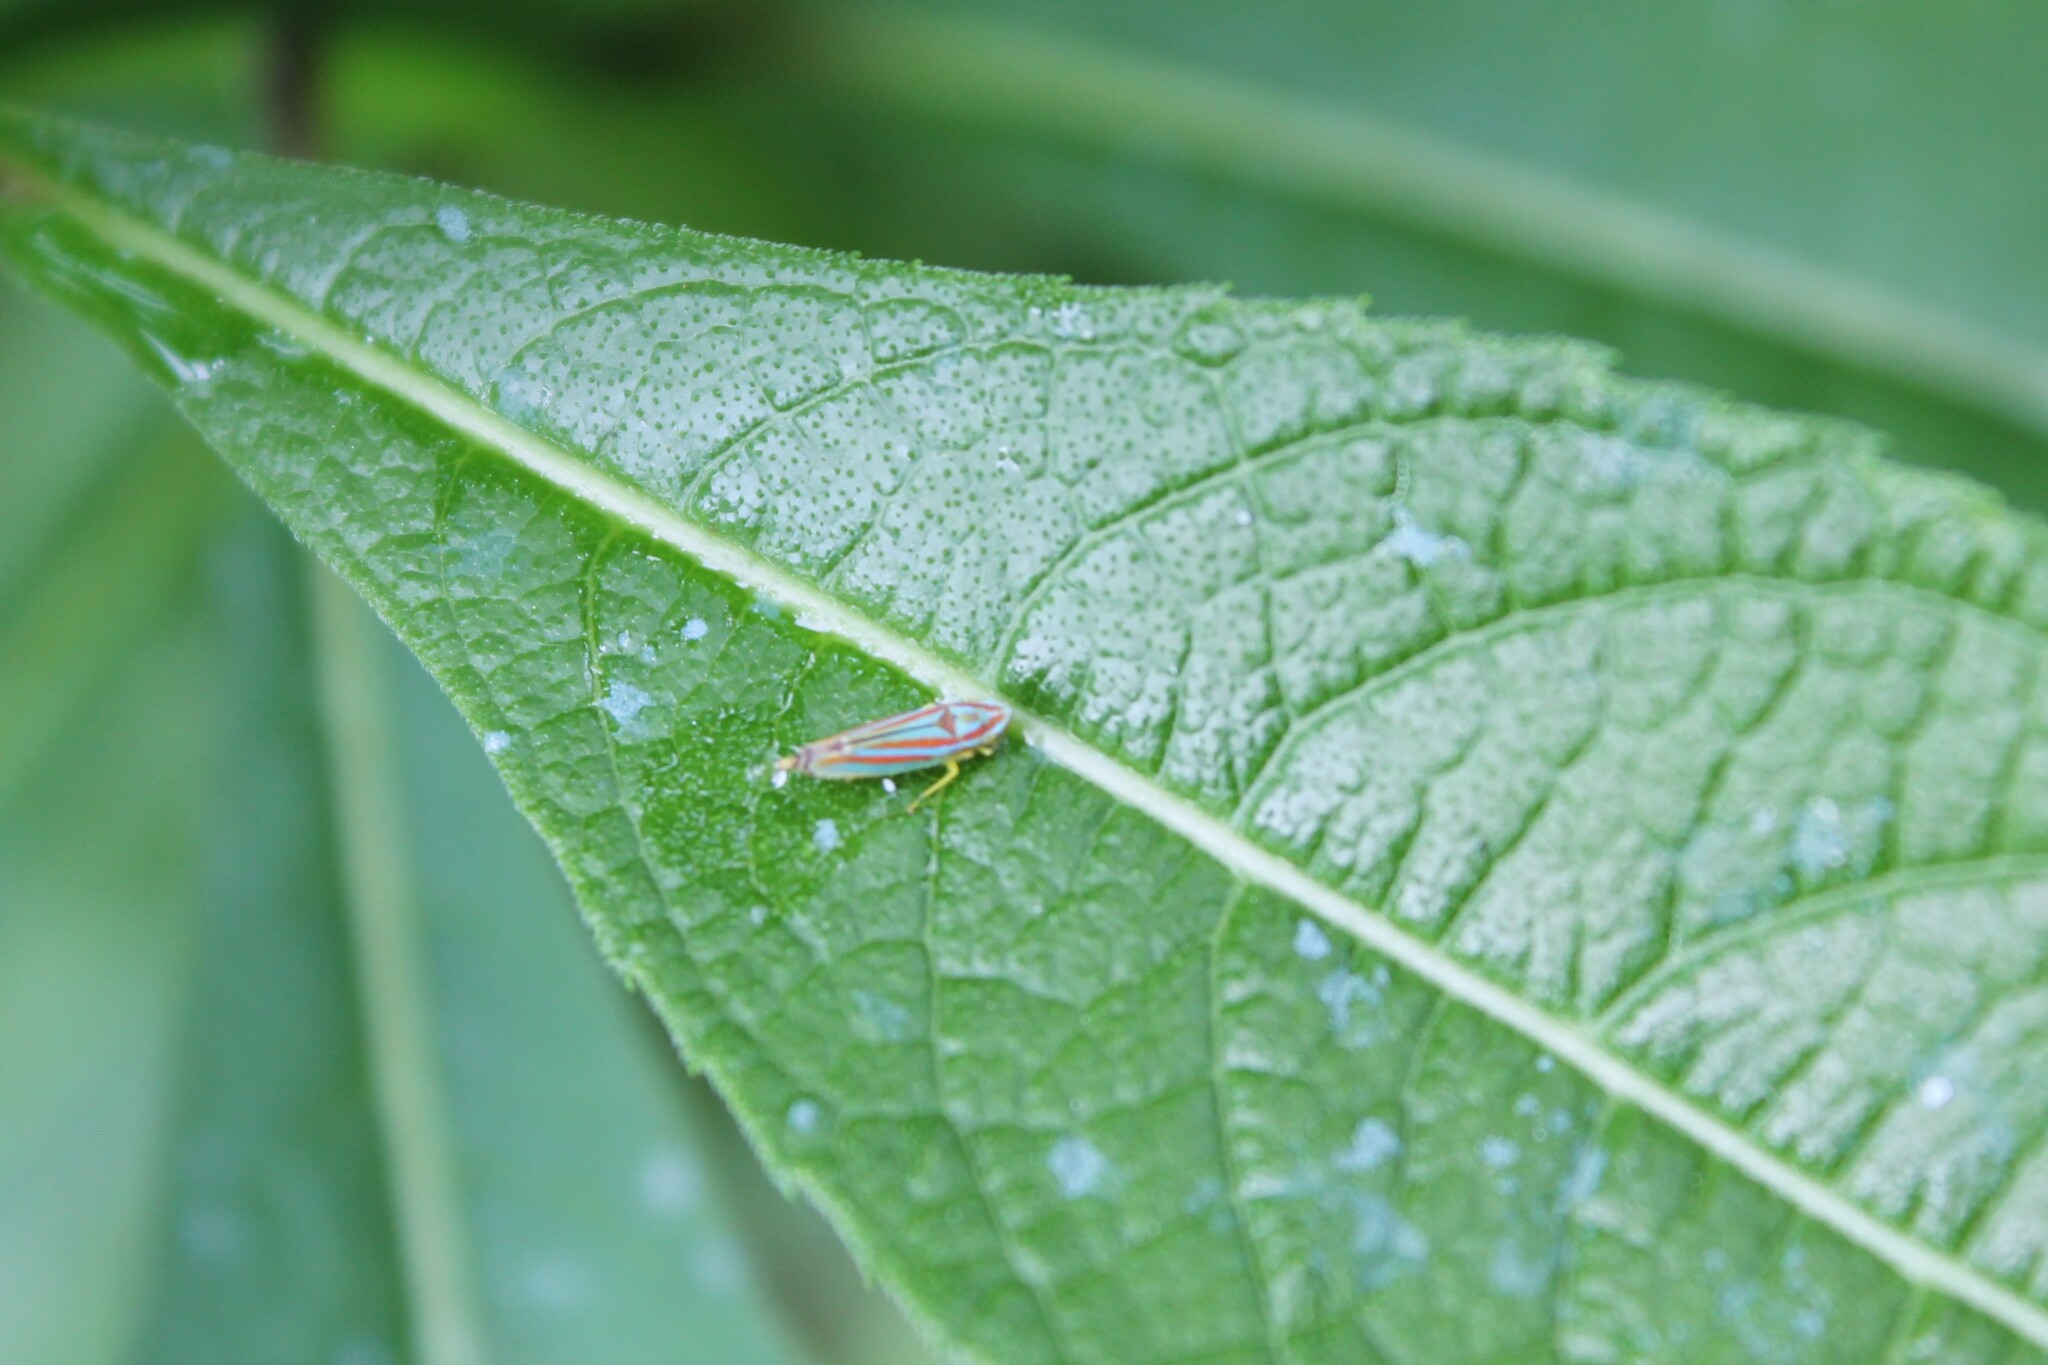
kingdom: Animalia
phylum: Arthropoda
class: Insecta
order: Hemiptera
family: Cicadellidae
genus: Graphocephala
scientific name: Graphocephala versuta
